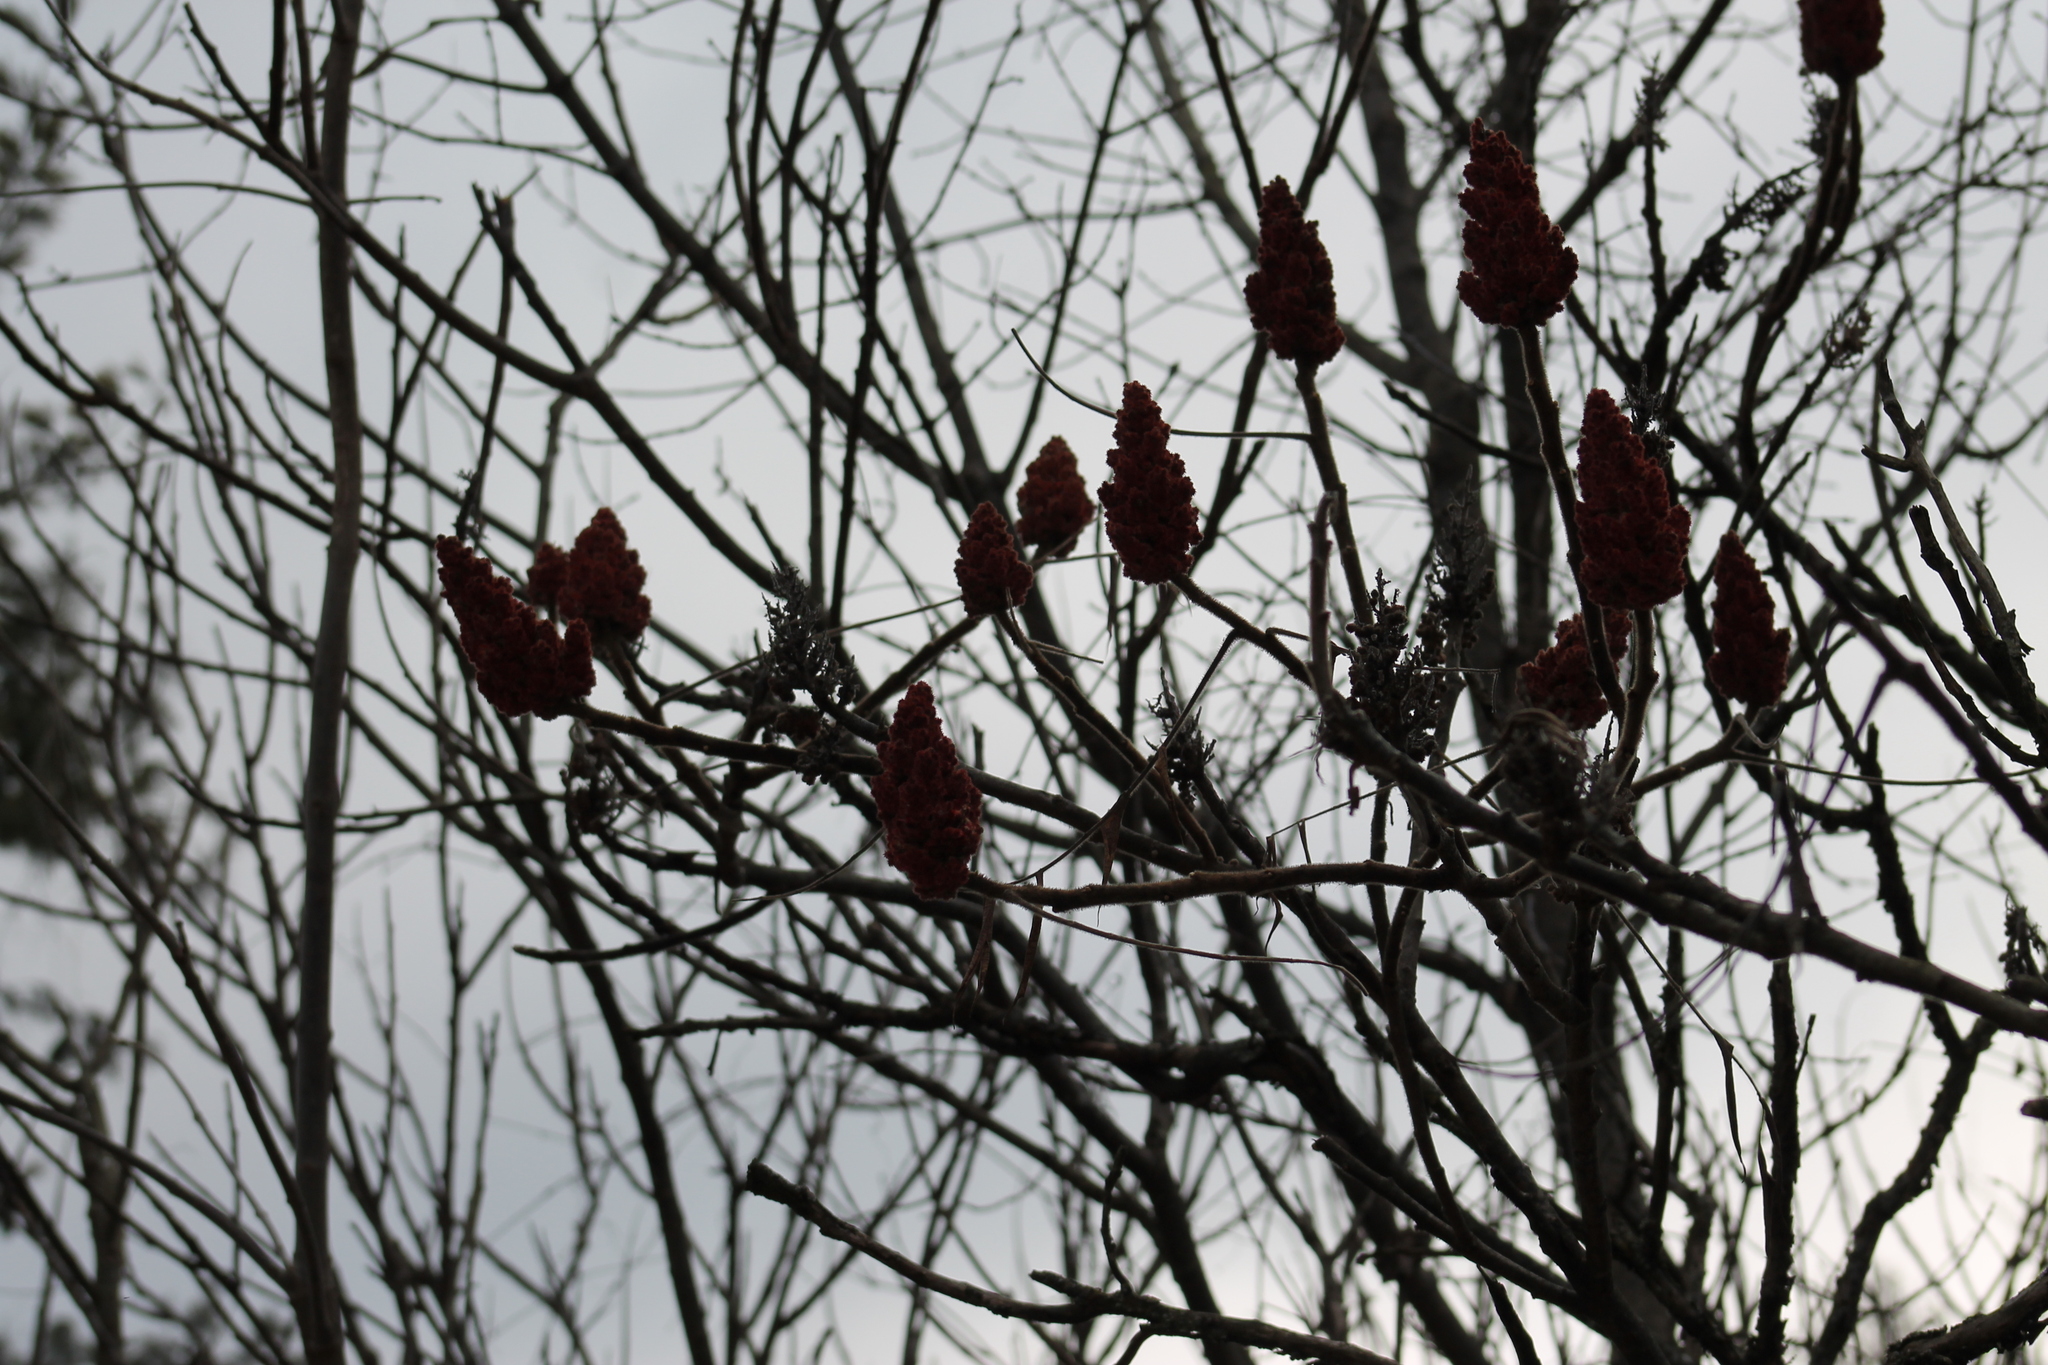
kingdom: Plantae
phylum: Tracheophyta
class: Magnoliopsida
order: Sapindales
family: Anacardiaceae
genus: Rhus
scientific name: Rhus typhina
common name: Staghorn sumac
